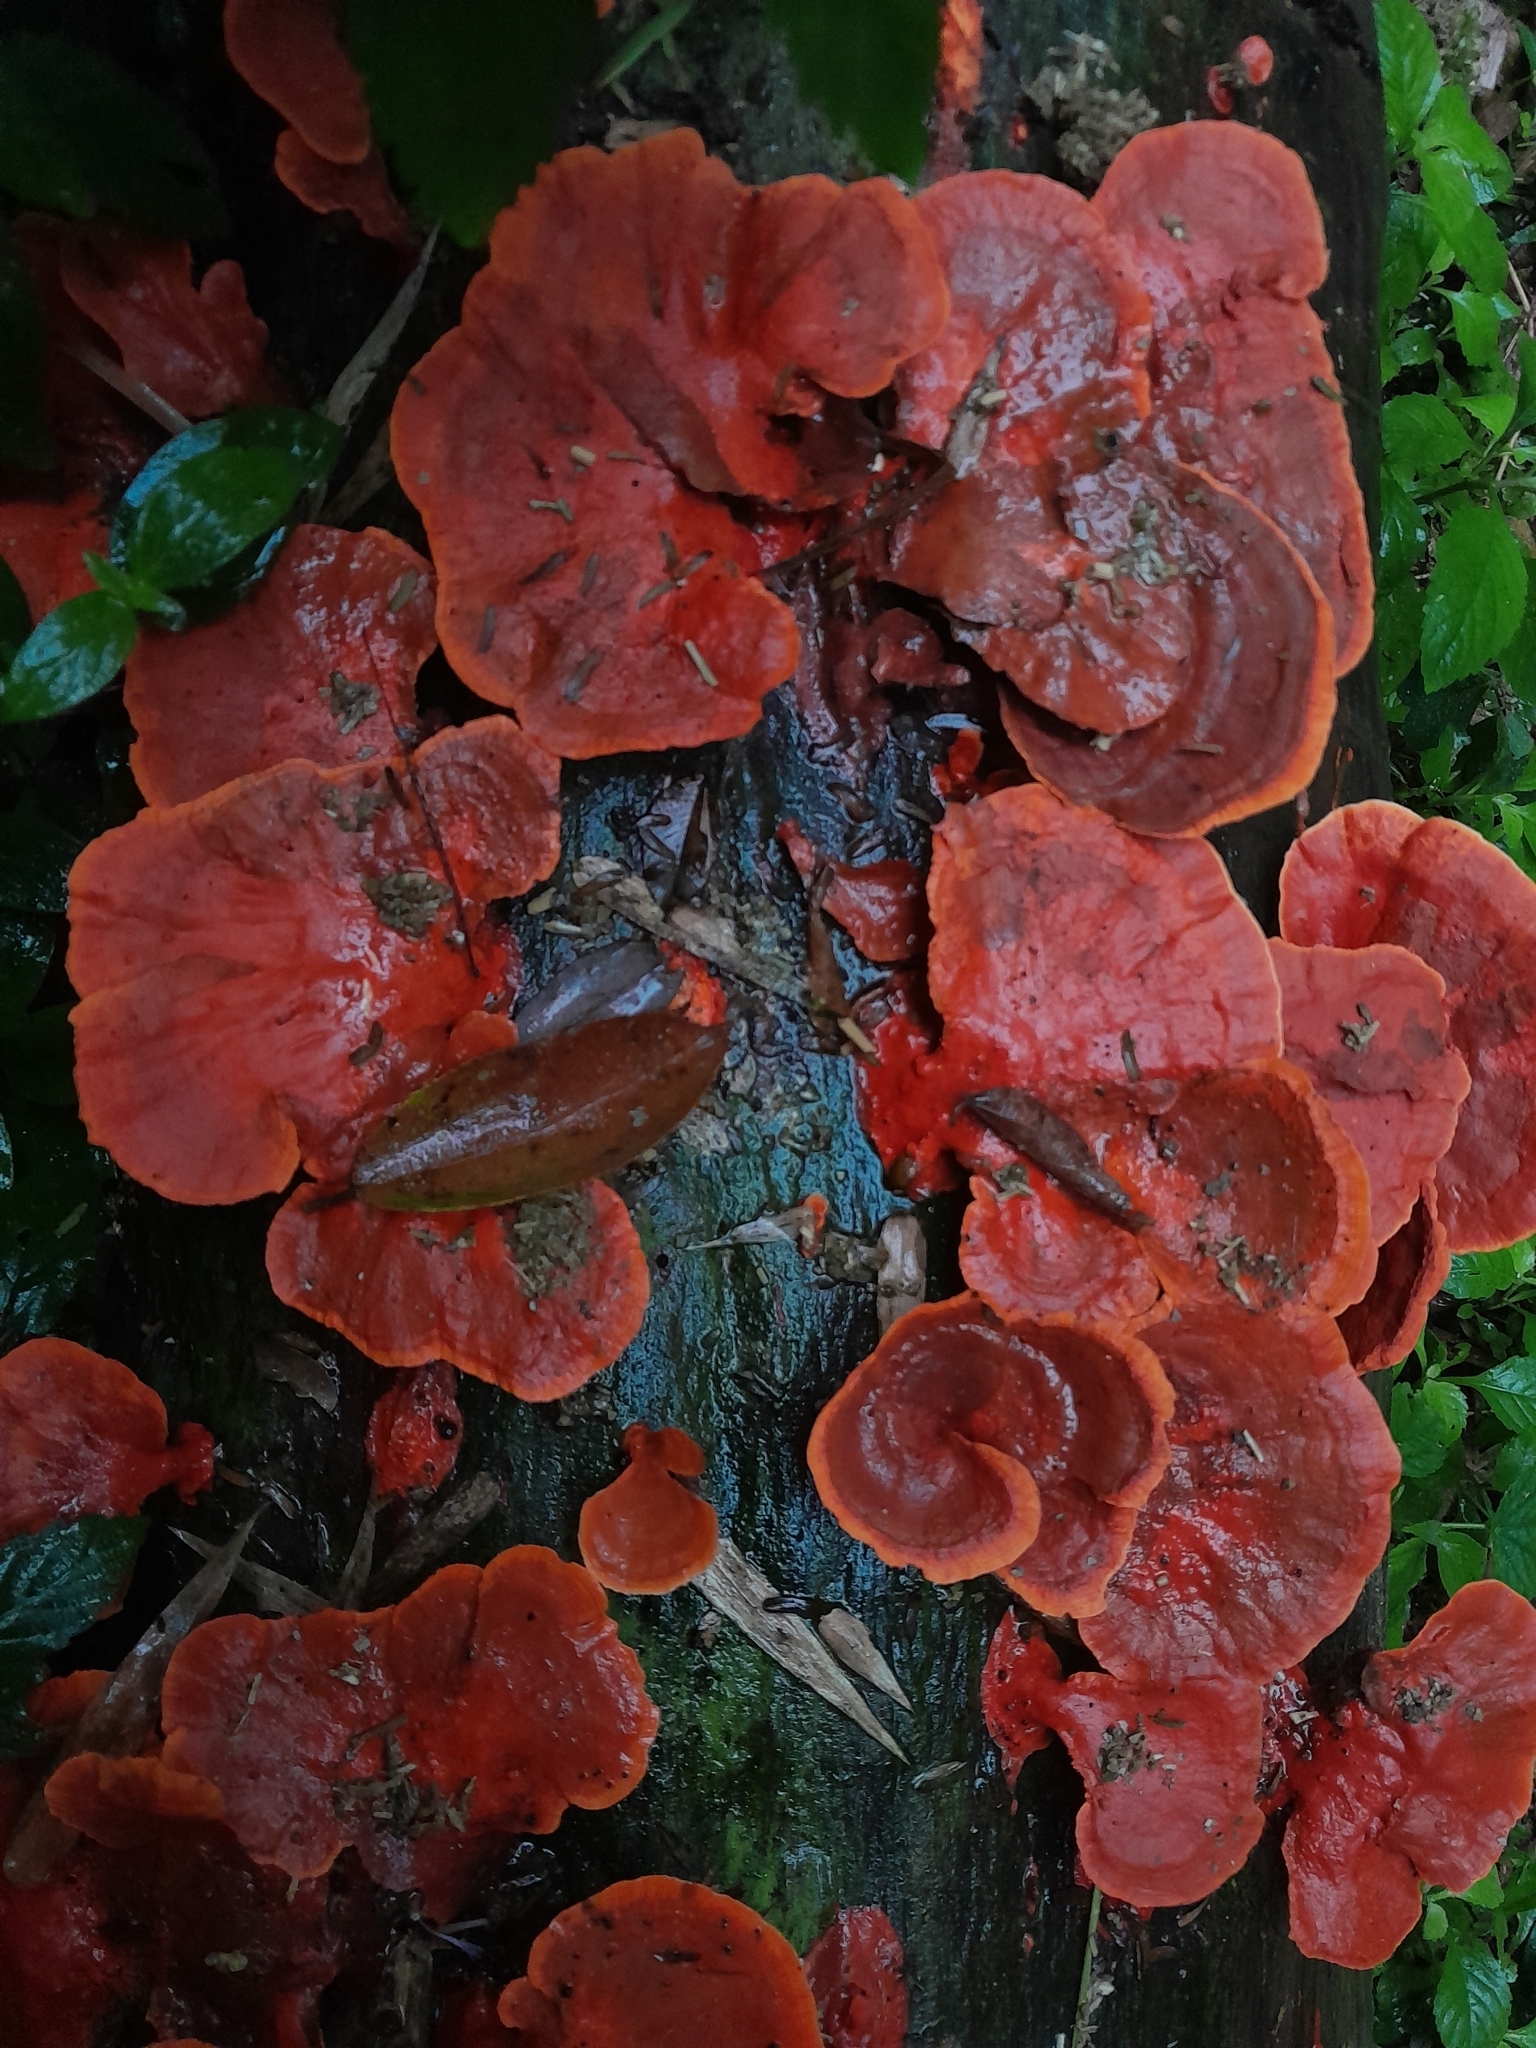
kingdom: Fungi
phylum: Basidiomycota
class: Agaricomycetes
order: Polyporales
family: Polyporaceae
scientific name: Polyporaceae
